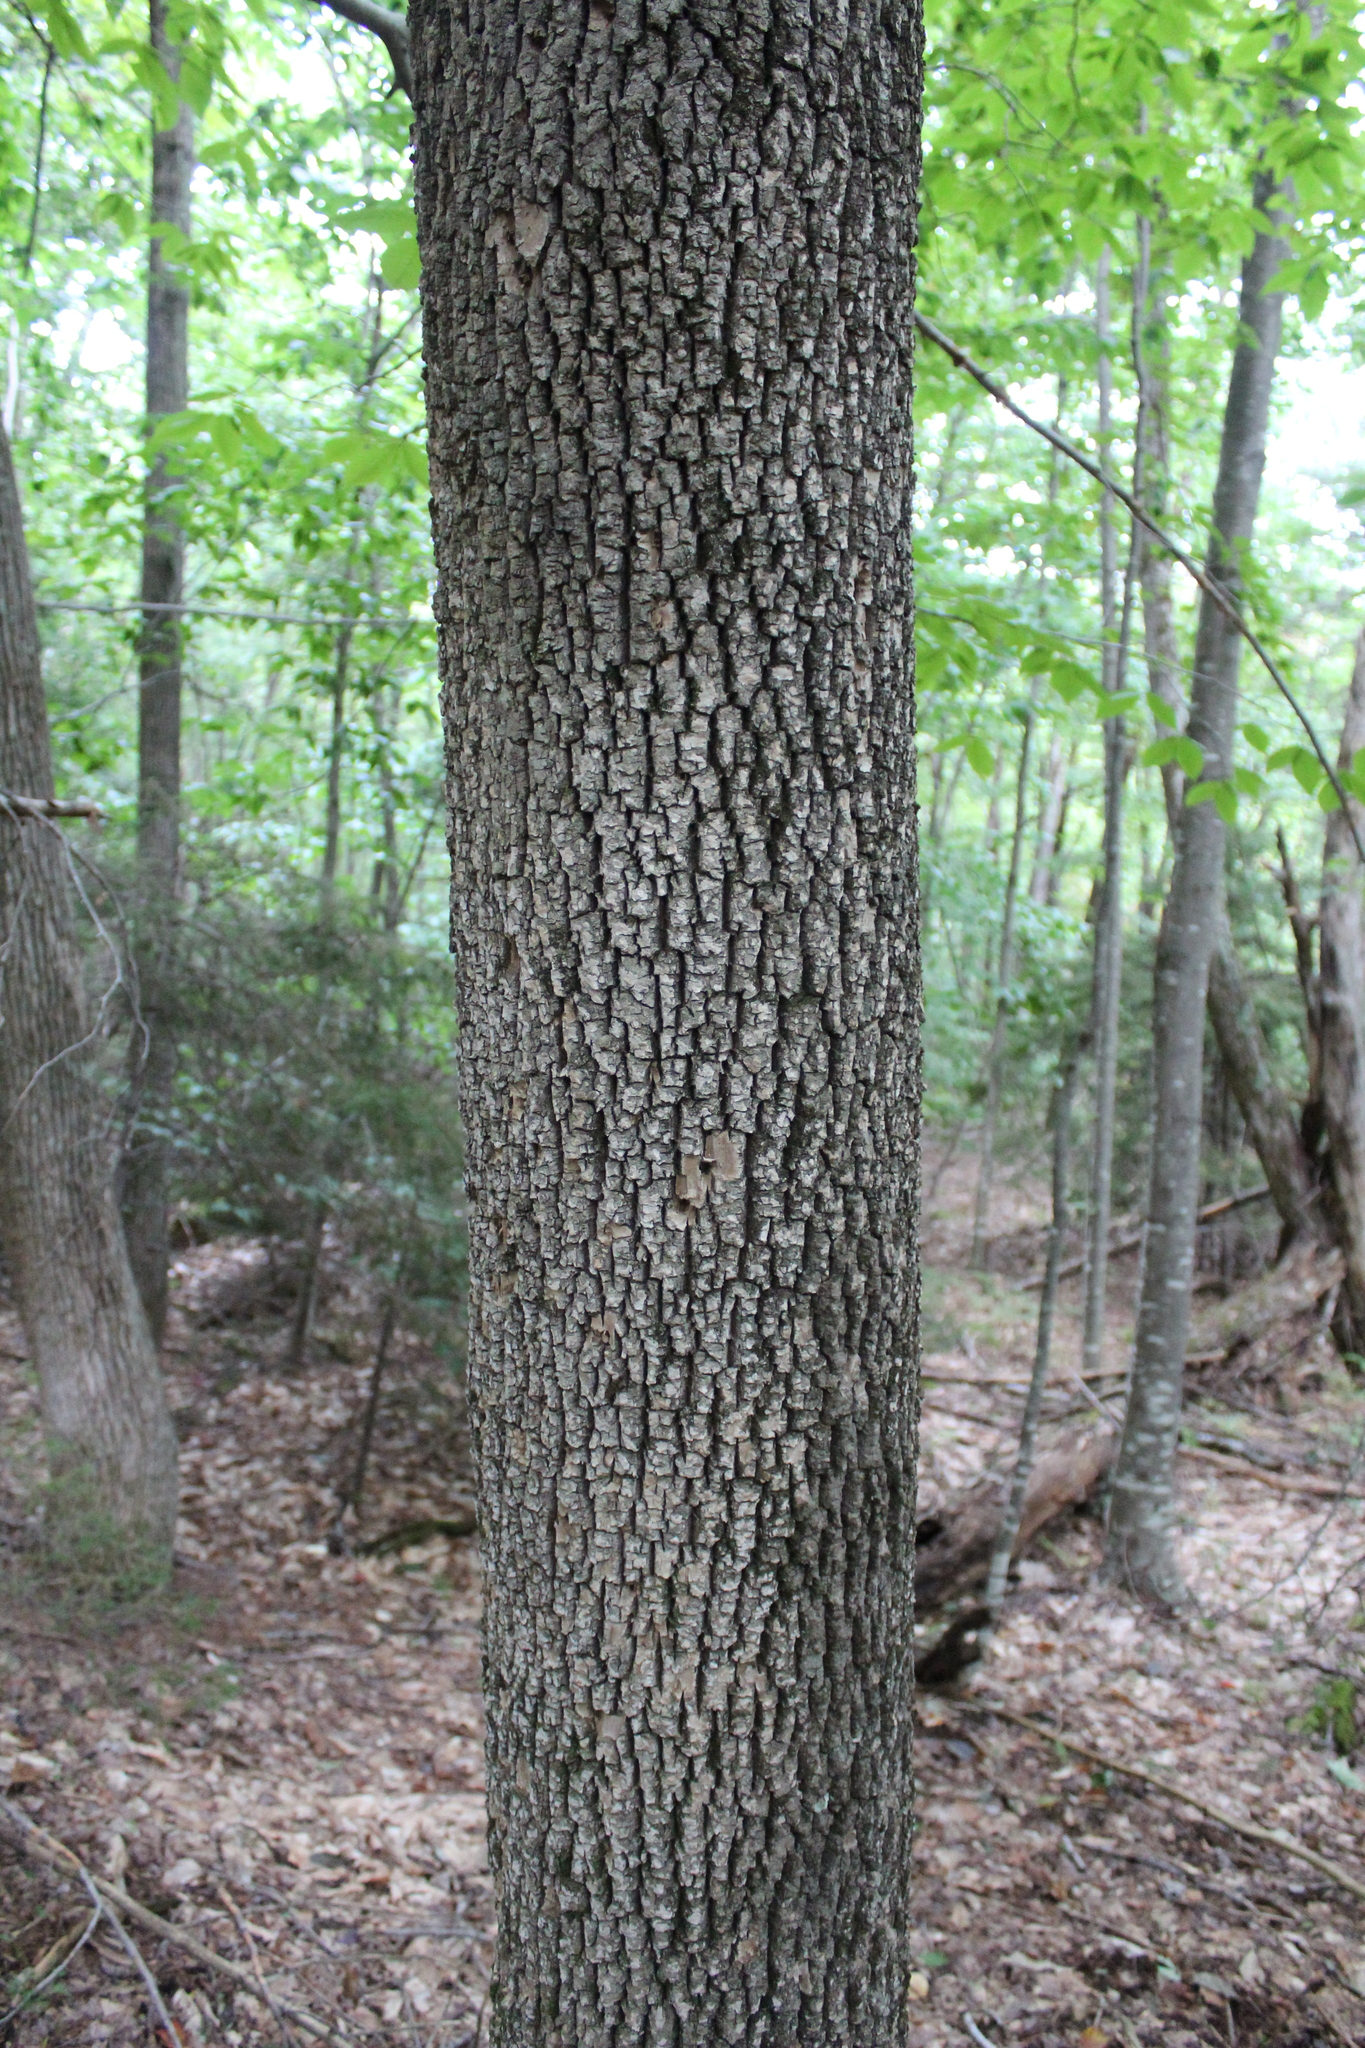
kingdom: Plantae
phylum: Tracheophyta
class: Magnoliopsida
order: Lamiales
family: Oleaceae
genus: Fraxinus
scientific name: Fraxinus americana
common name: White ash
